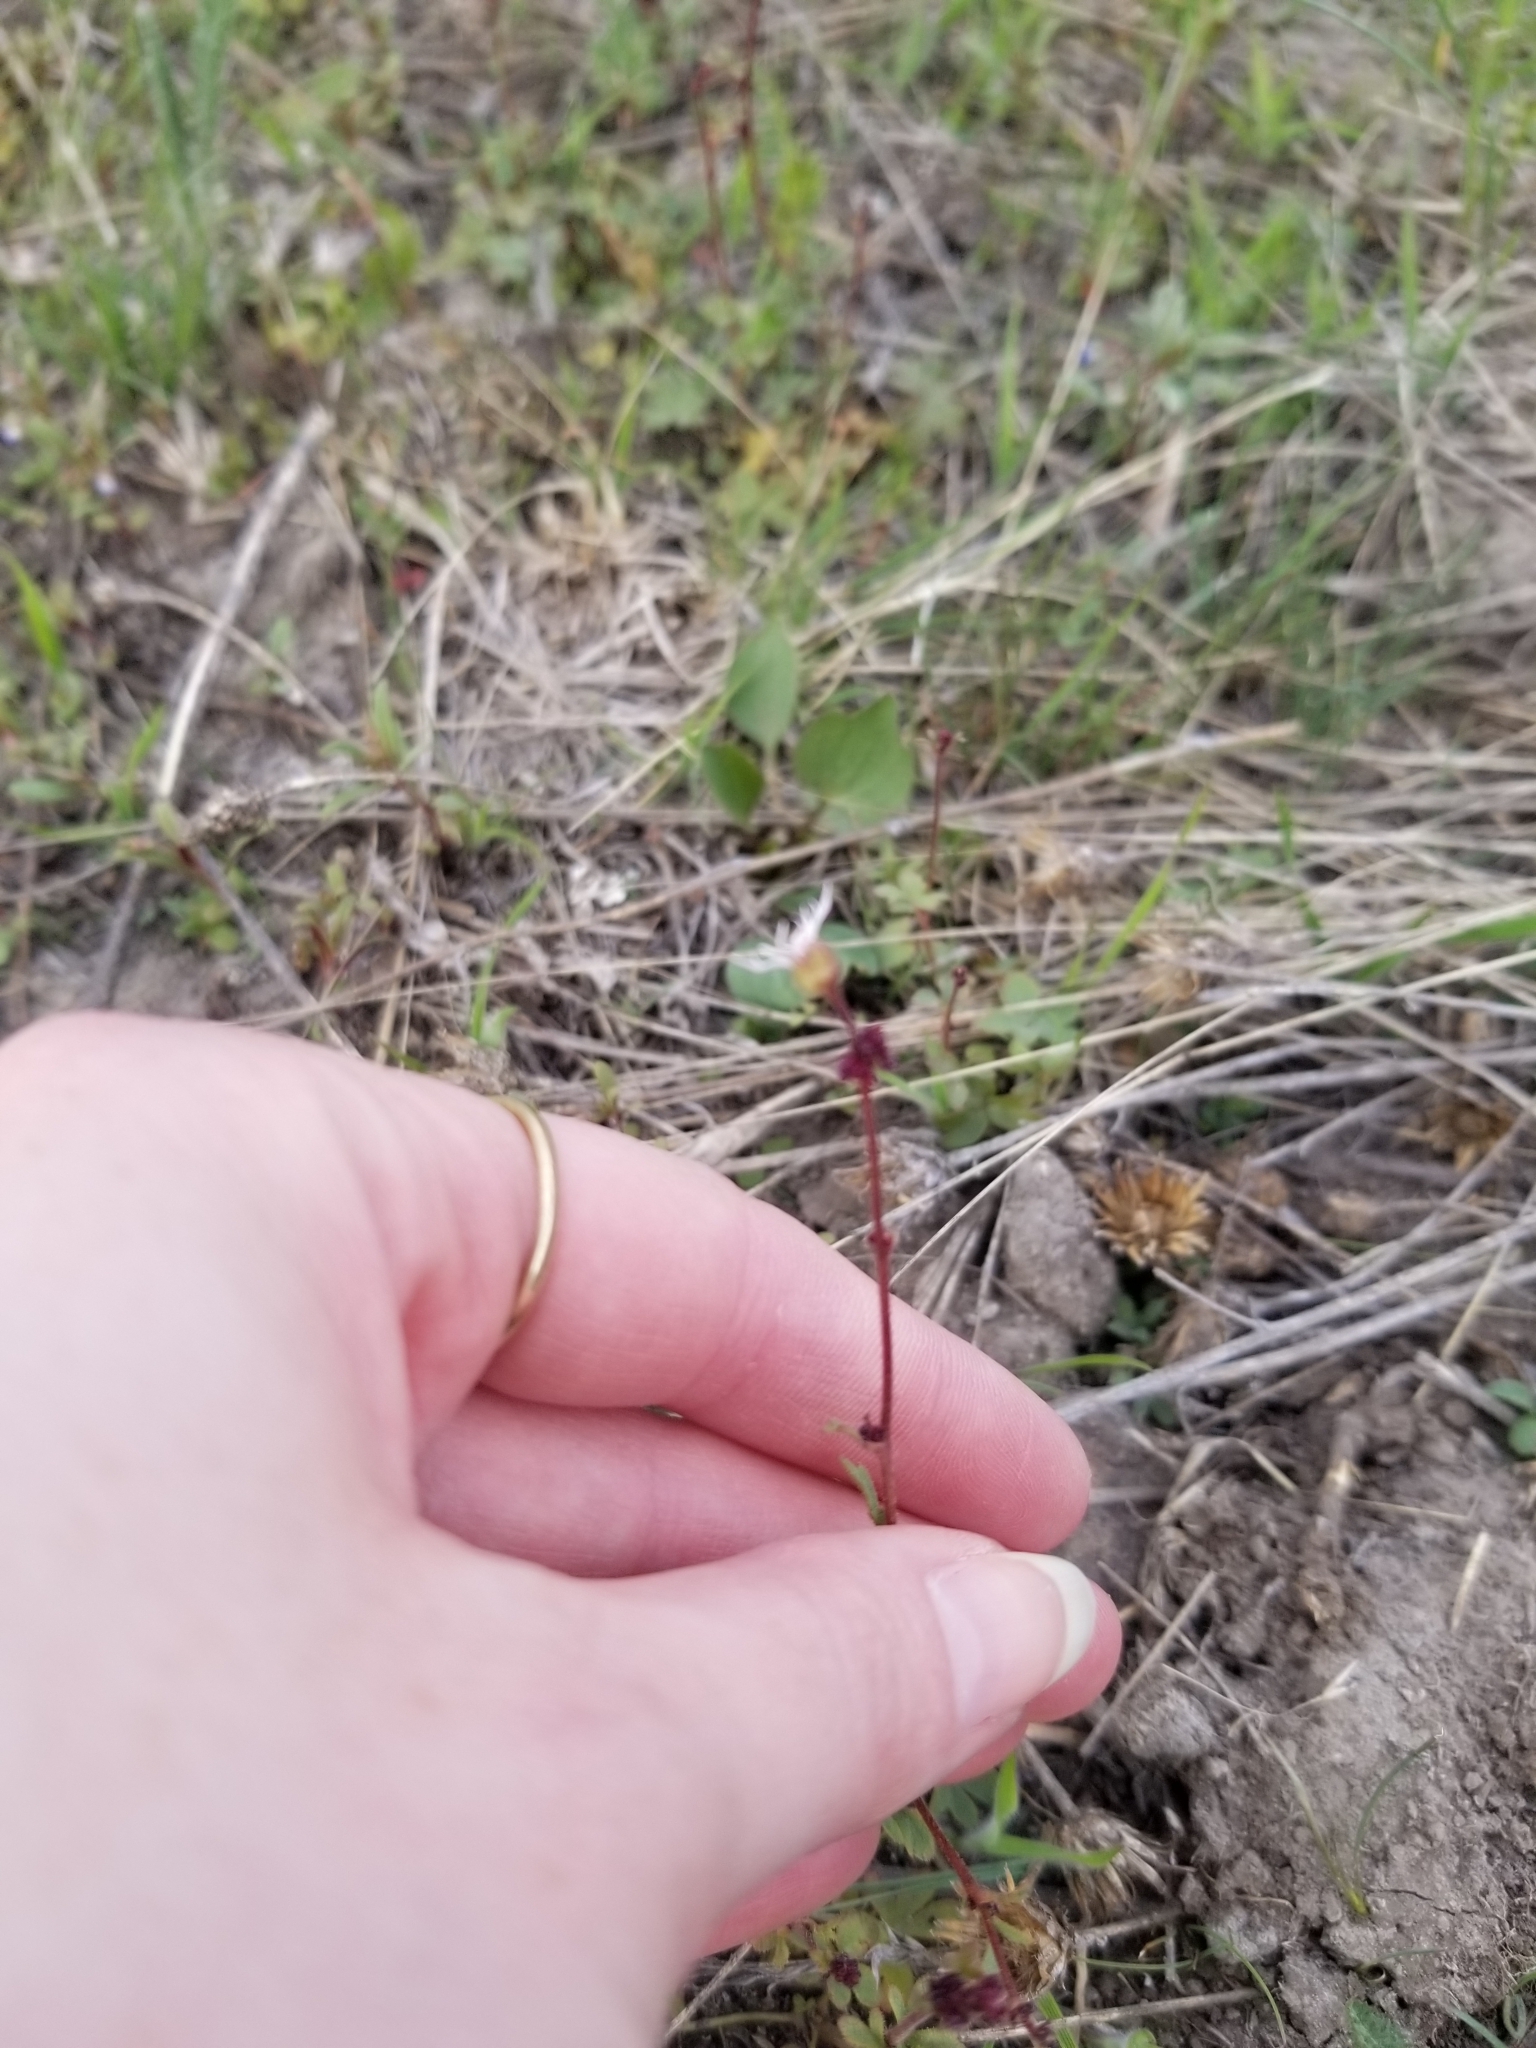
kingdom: Plantae
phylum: Tracheophyta
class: Magnoliopsida
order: Saxifragales
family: Saxifragaceae
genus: Lithophragma
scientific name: Lithophragma glabrum
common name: Bulbous prairie-star
